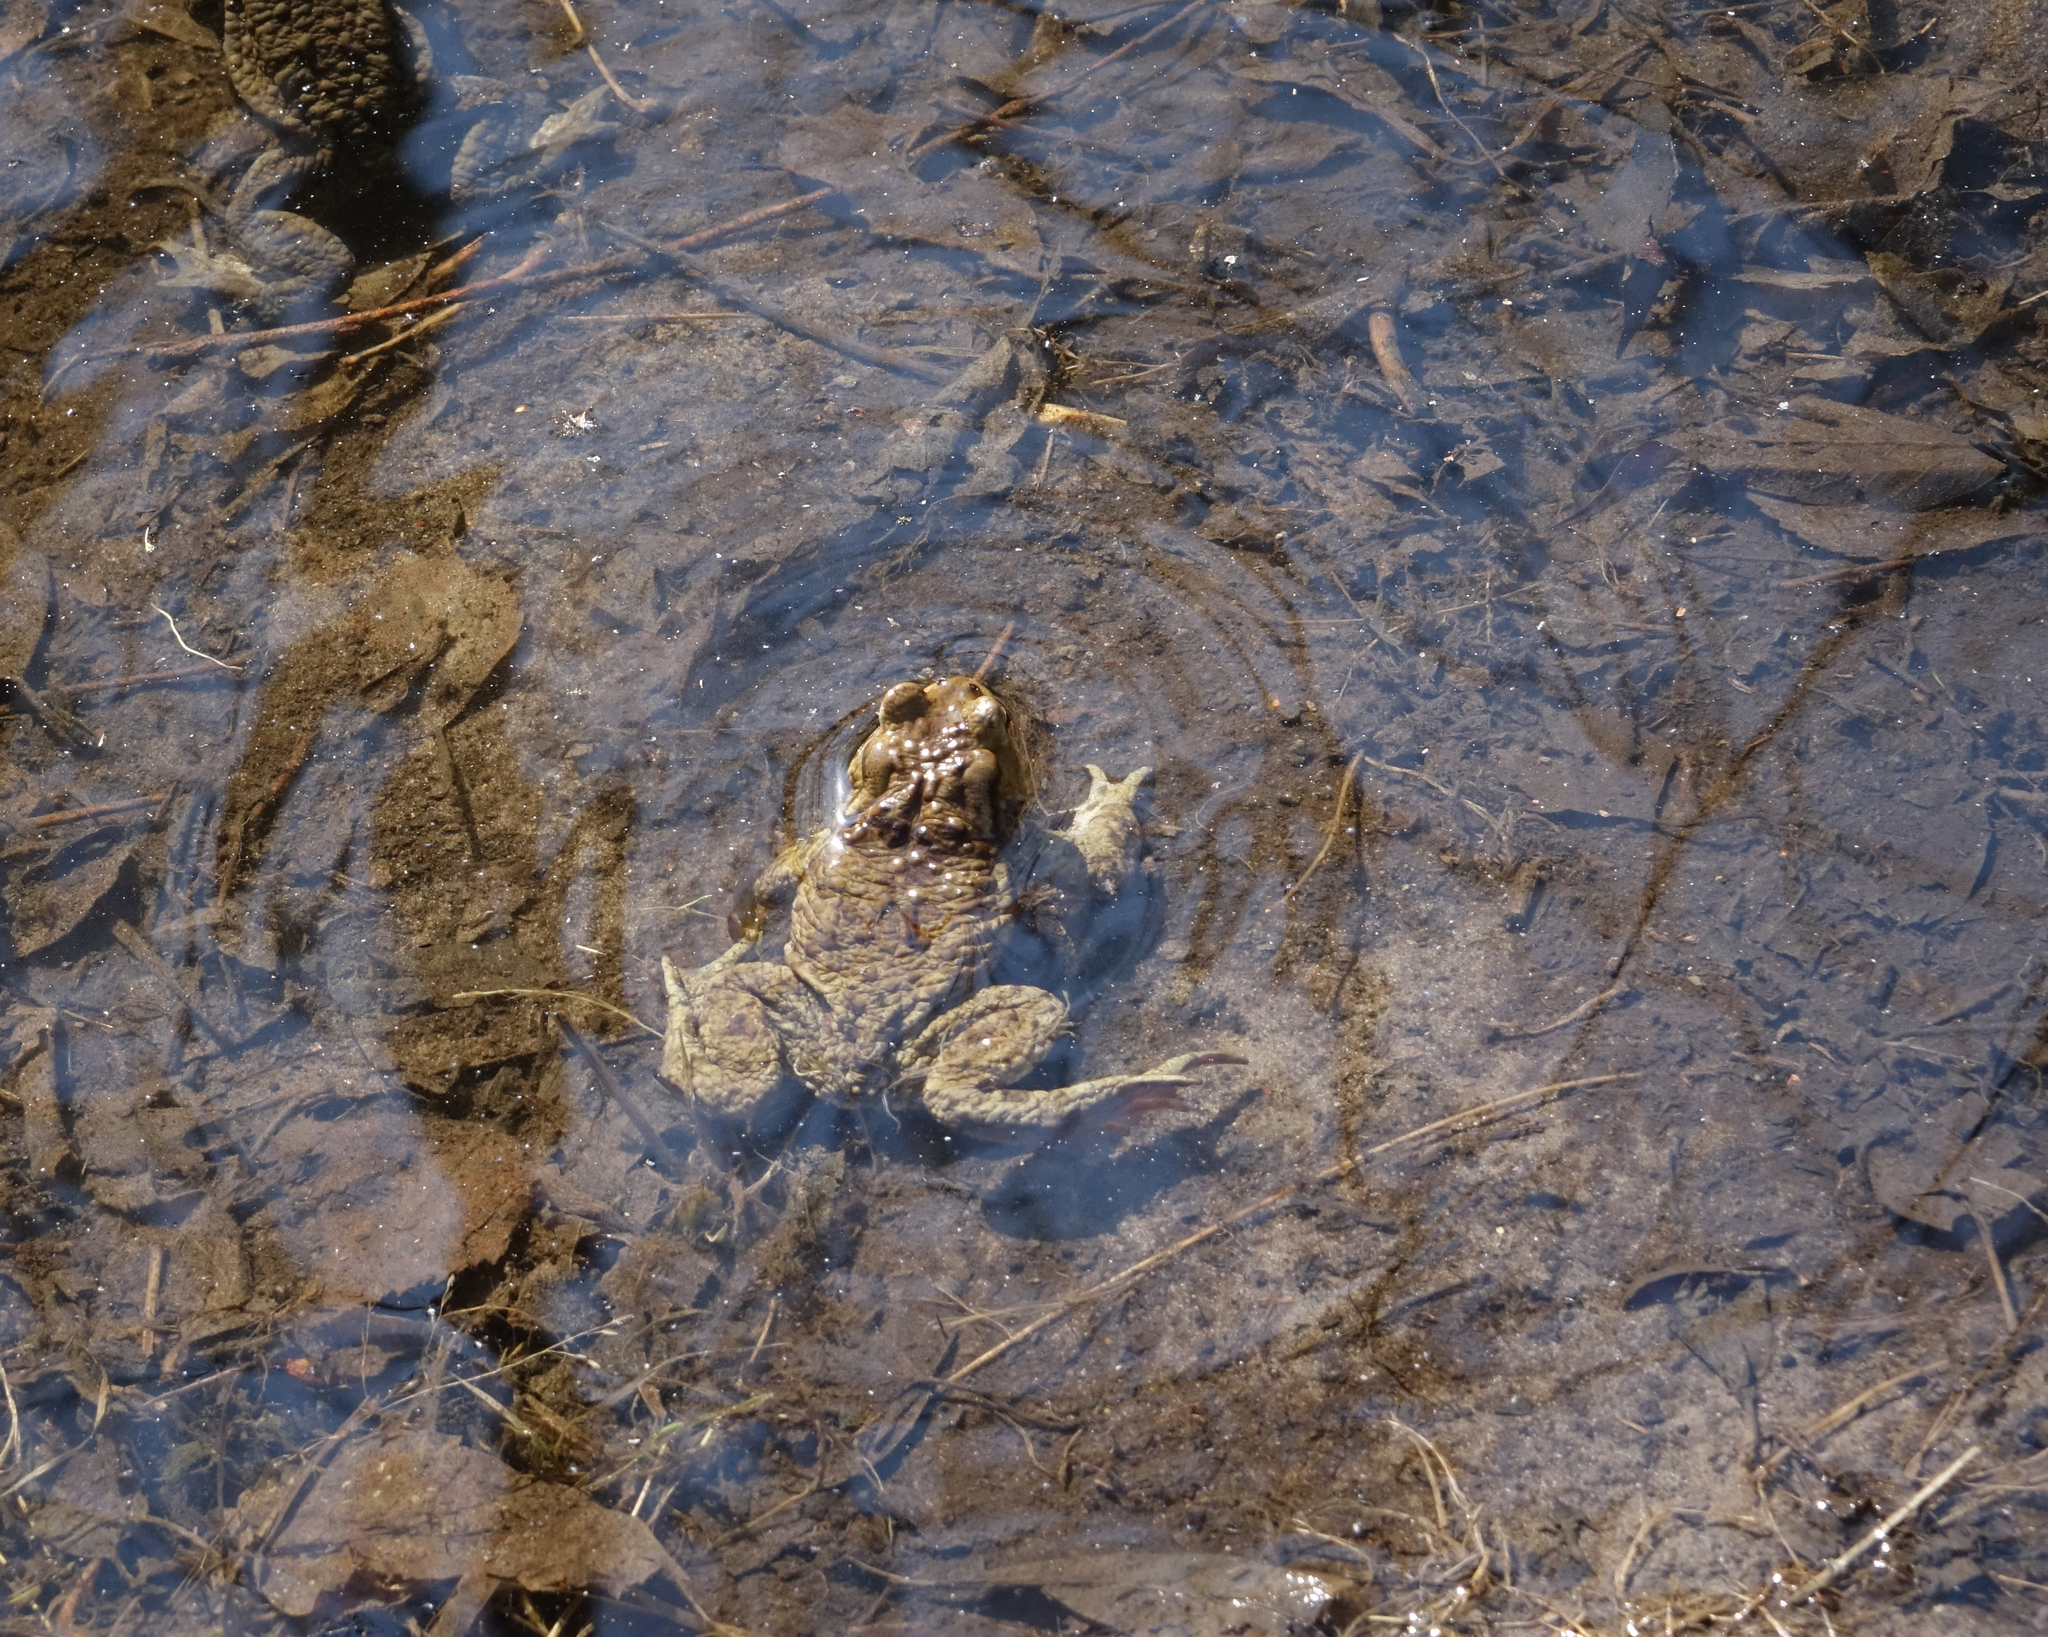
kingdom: Animalia
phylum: Chordata
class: Amphibia
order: Anura
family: Bufonidae
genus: Bufo
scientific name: Bufo bufo
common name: Common toad
